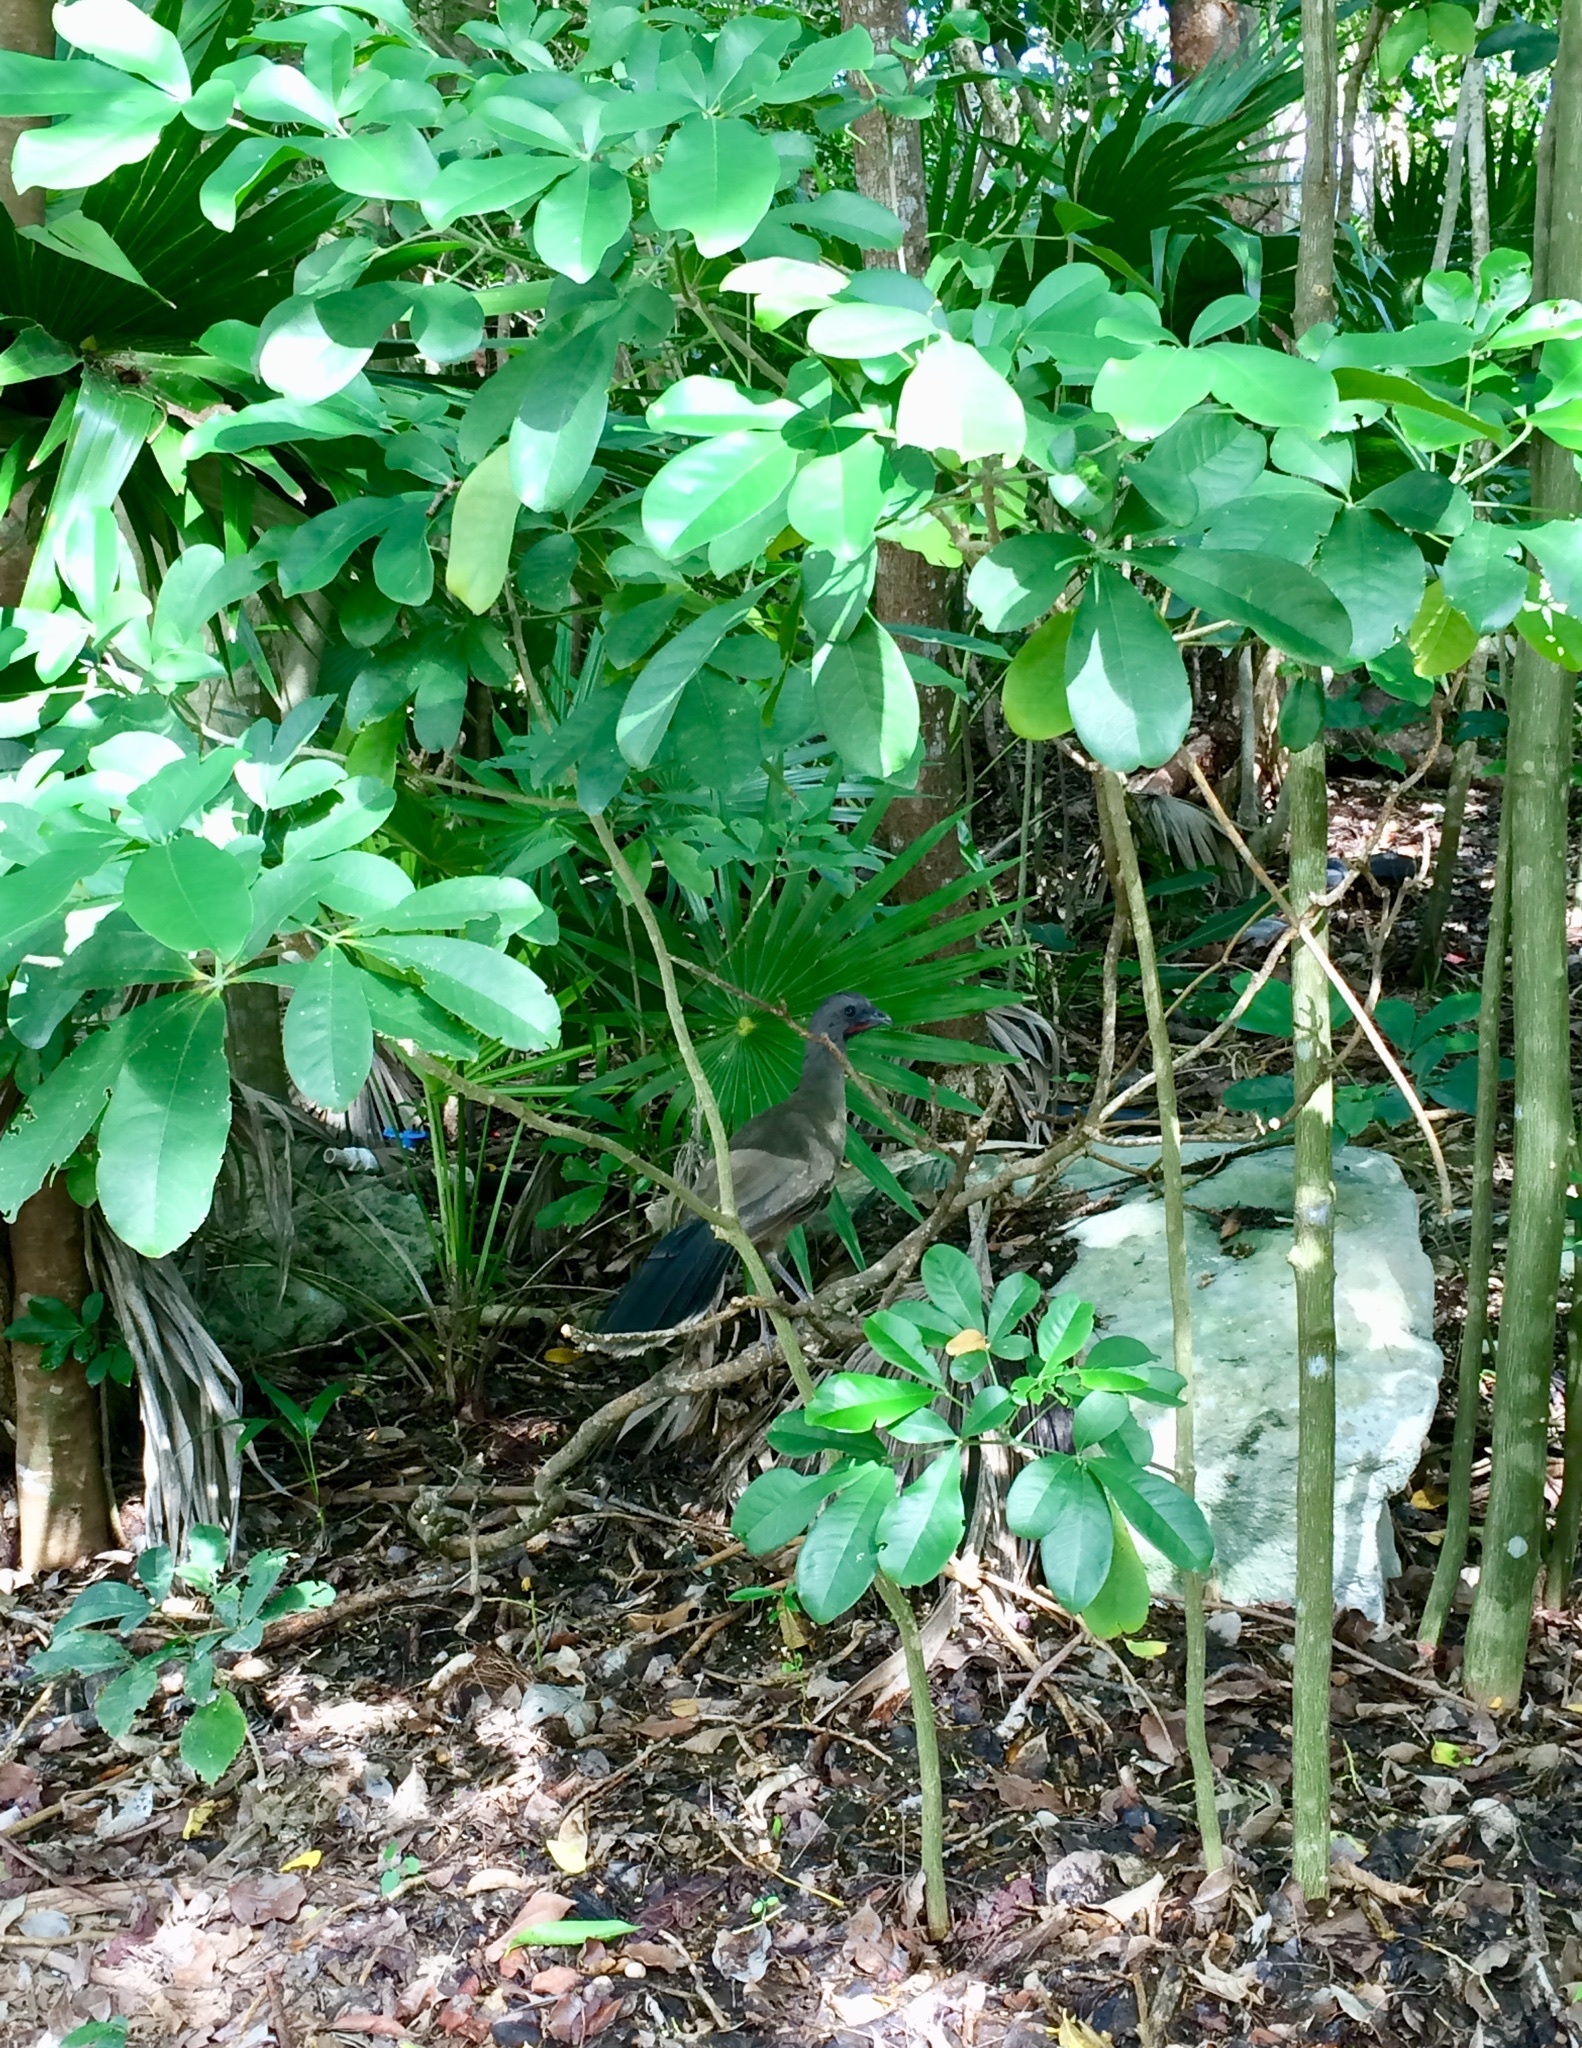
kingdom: Animalia
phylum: Chordata
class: Aves
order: Galliformes
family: Cracidae
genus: Ortalis
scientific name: Ortalis vetula
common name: Plain chachalaca
